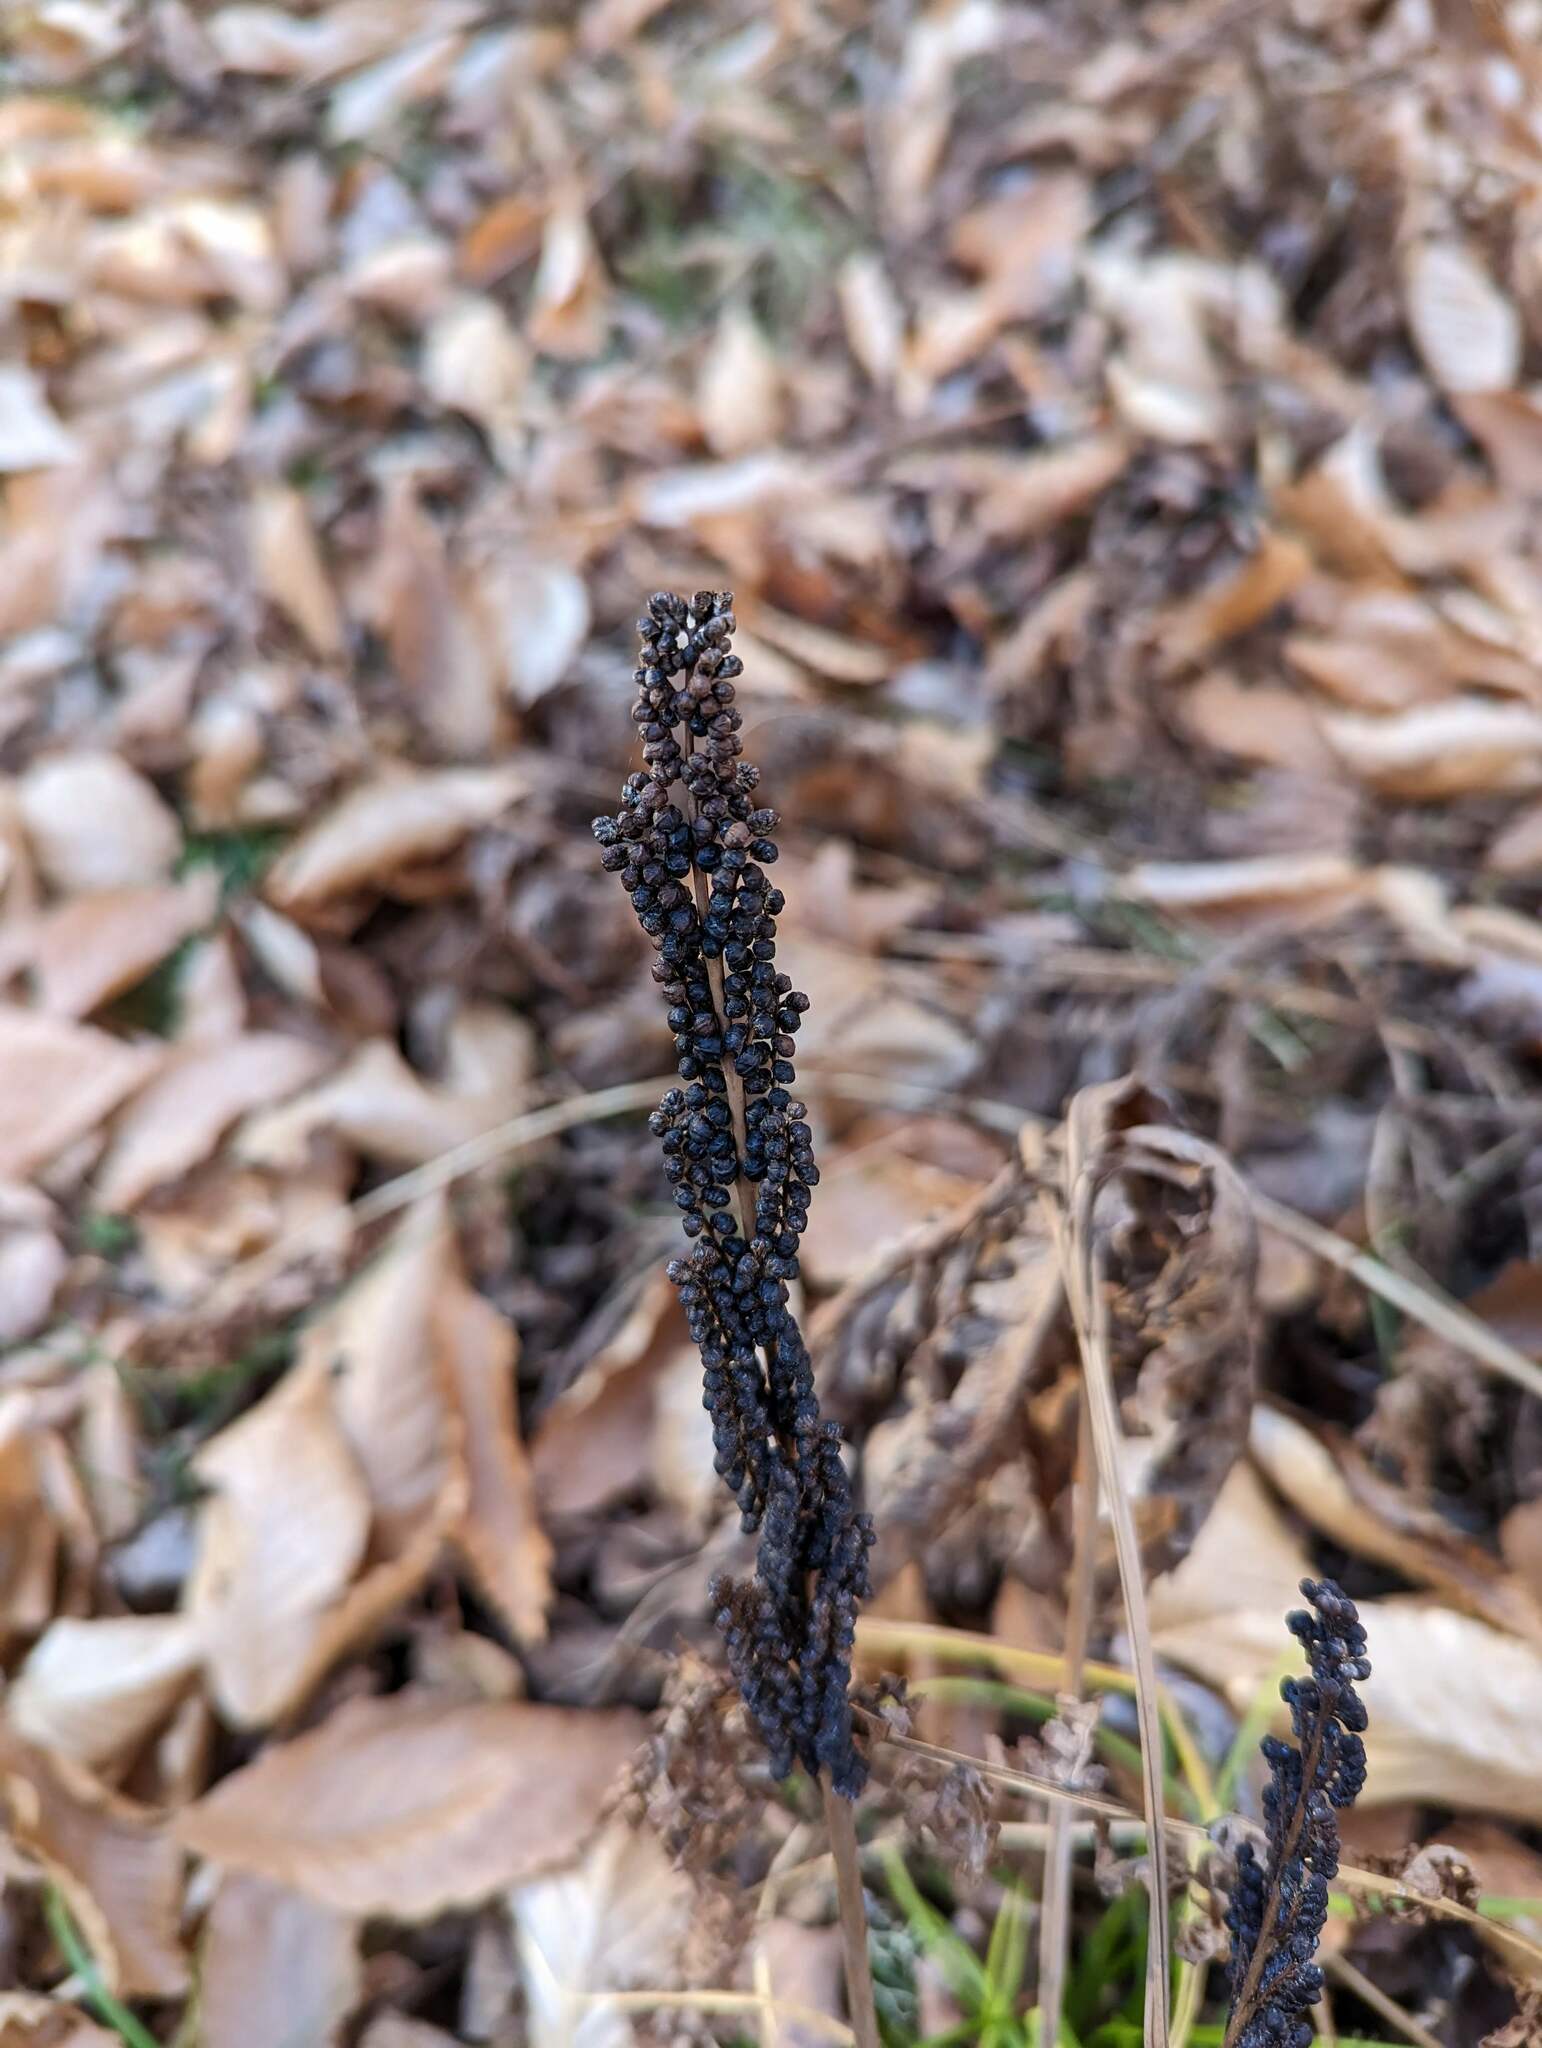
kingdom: Plantae
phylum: Tracheophyta
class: Polypodiopsida
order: Polypodiales
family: Onocleaceae
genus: Onoclea
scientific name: Onoclea sensibilis
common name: Sensitive fern
